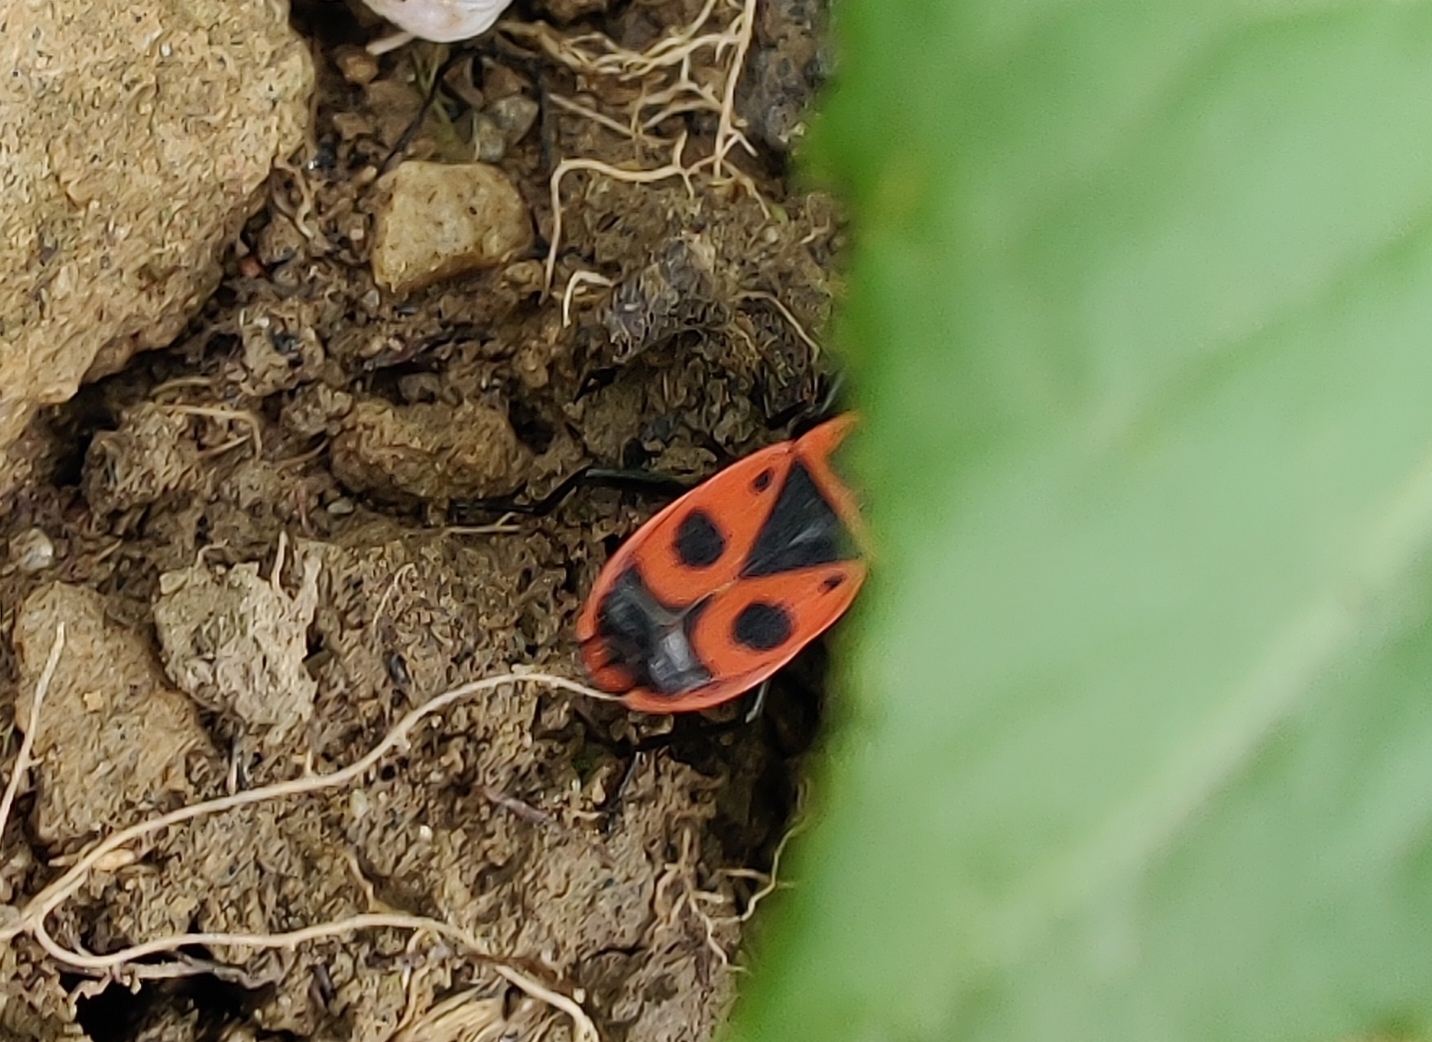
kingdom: Animalia
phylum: Arthropoda
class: Insecta
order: Hemiptera
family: Pyrrhocoridae
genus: Pyrrhocoris
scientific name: Pyrrhocoris apterus
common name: Firebug
